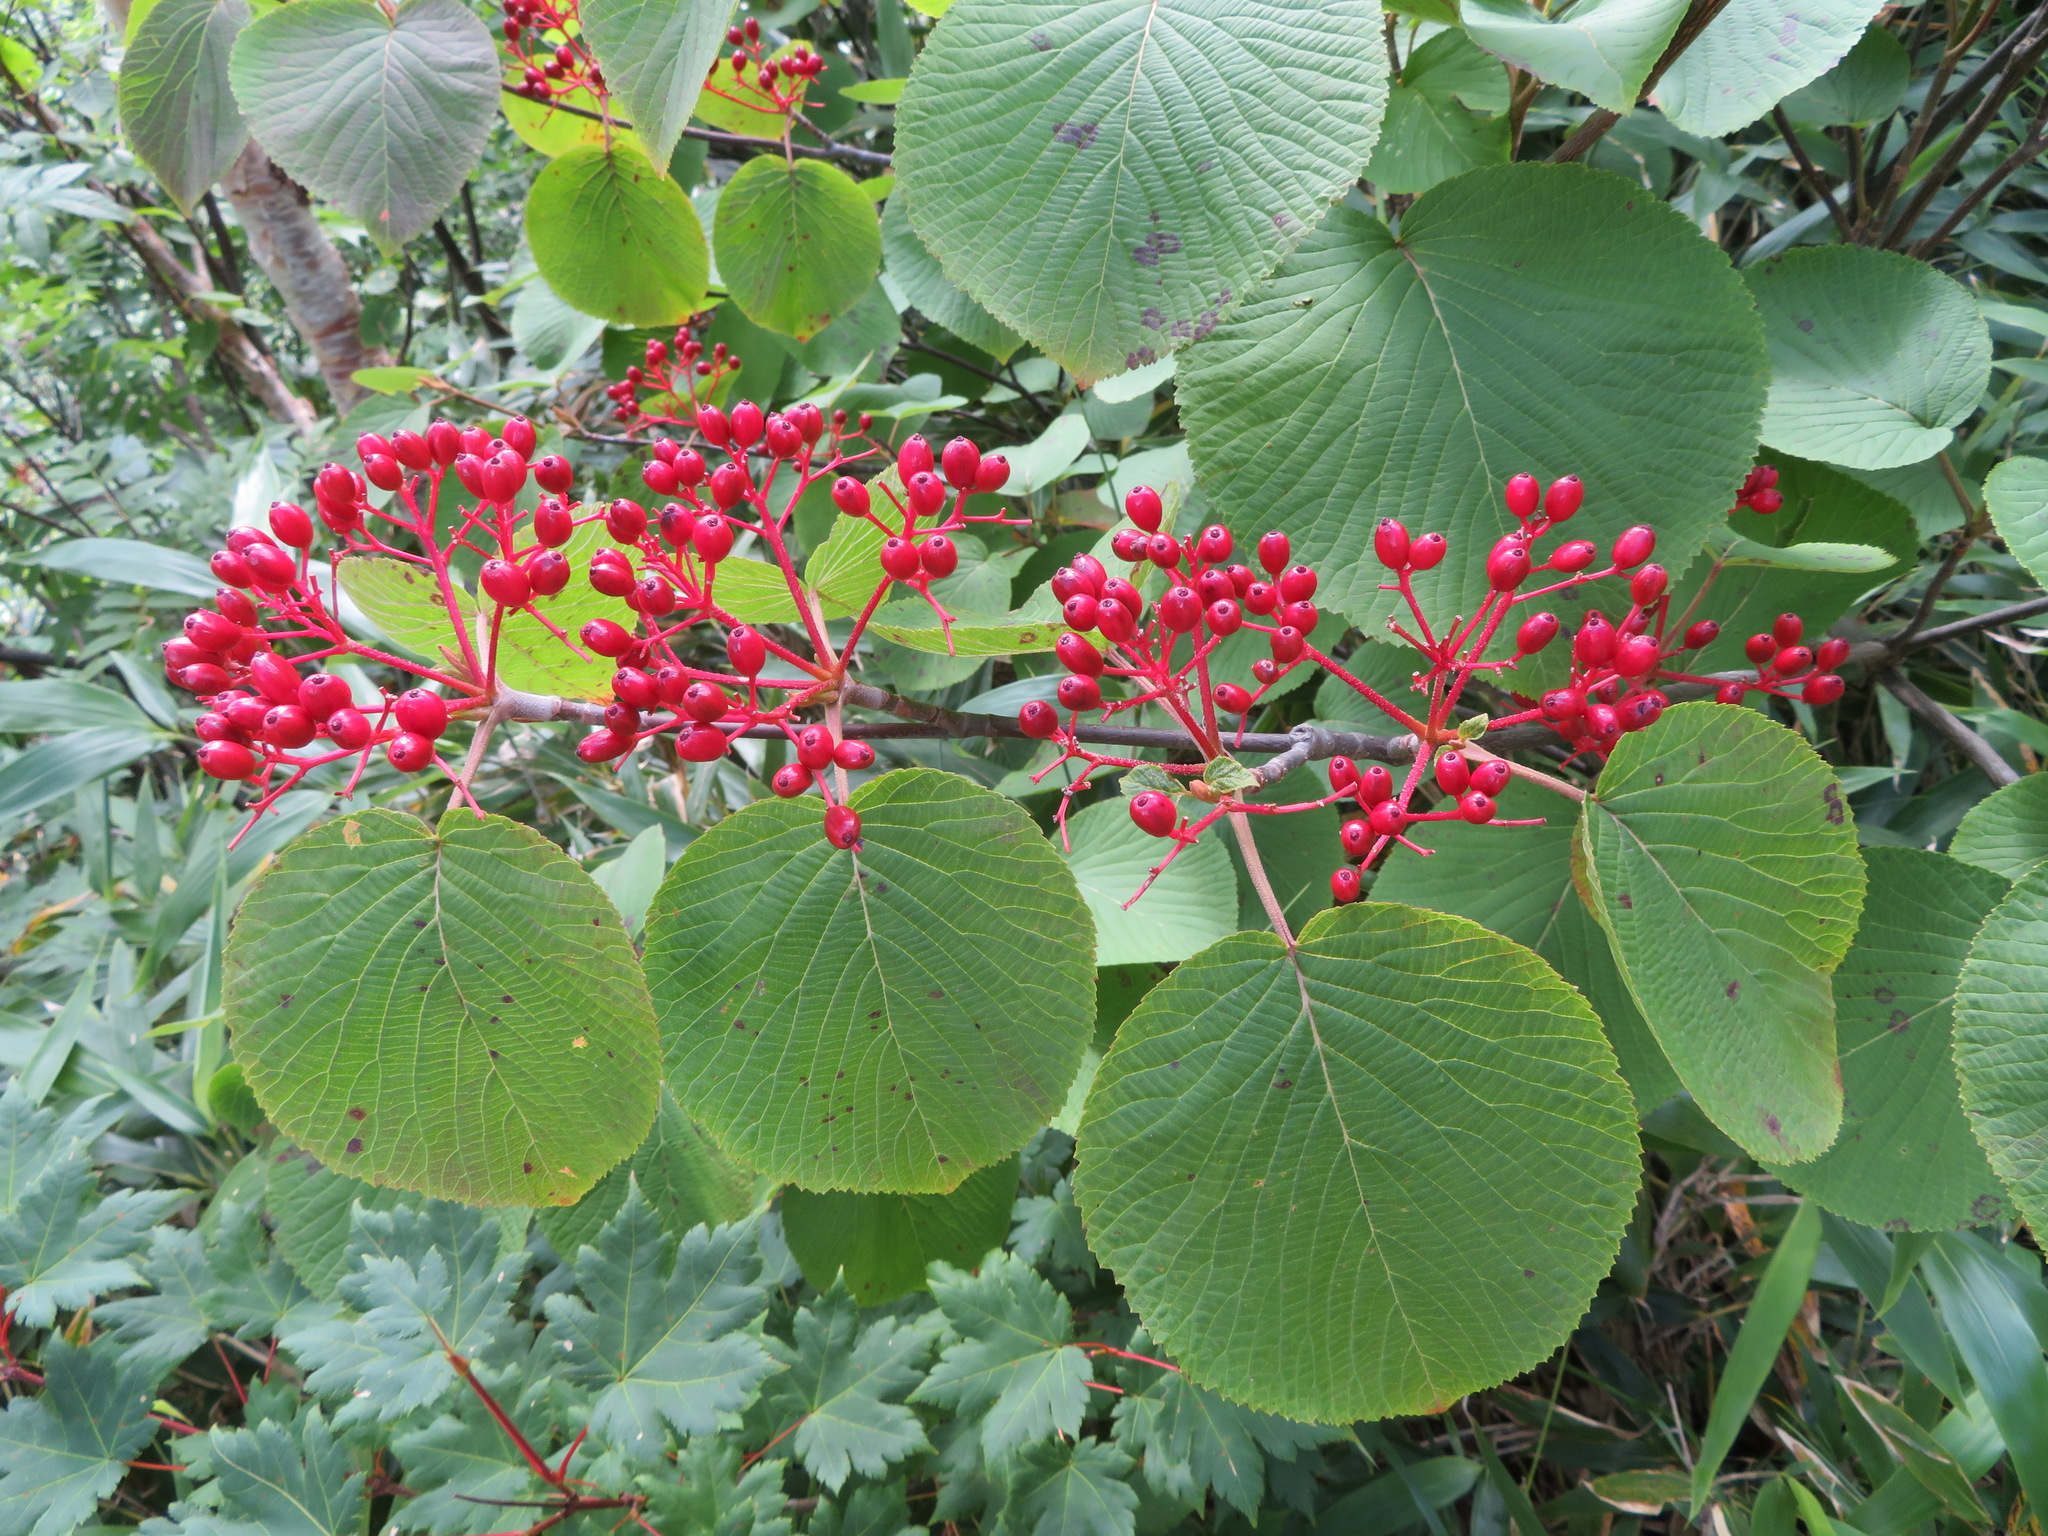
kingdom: Plantae
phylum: Tracheophyta
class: Magnoliopsida
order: Dipsacales
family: Viburnaceae
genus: Viburnum
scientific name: Viburnum furcatum
